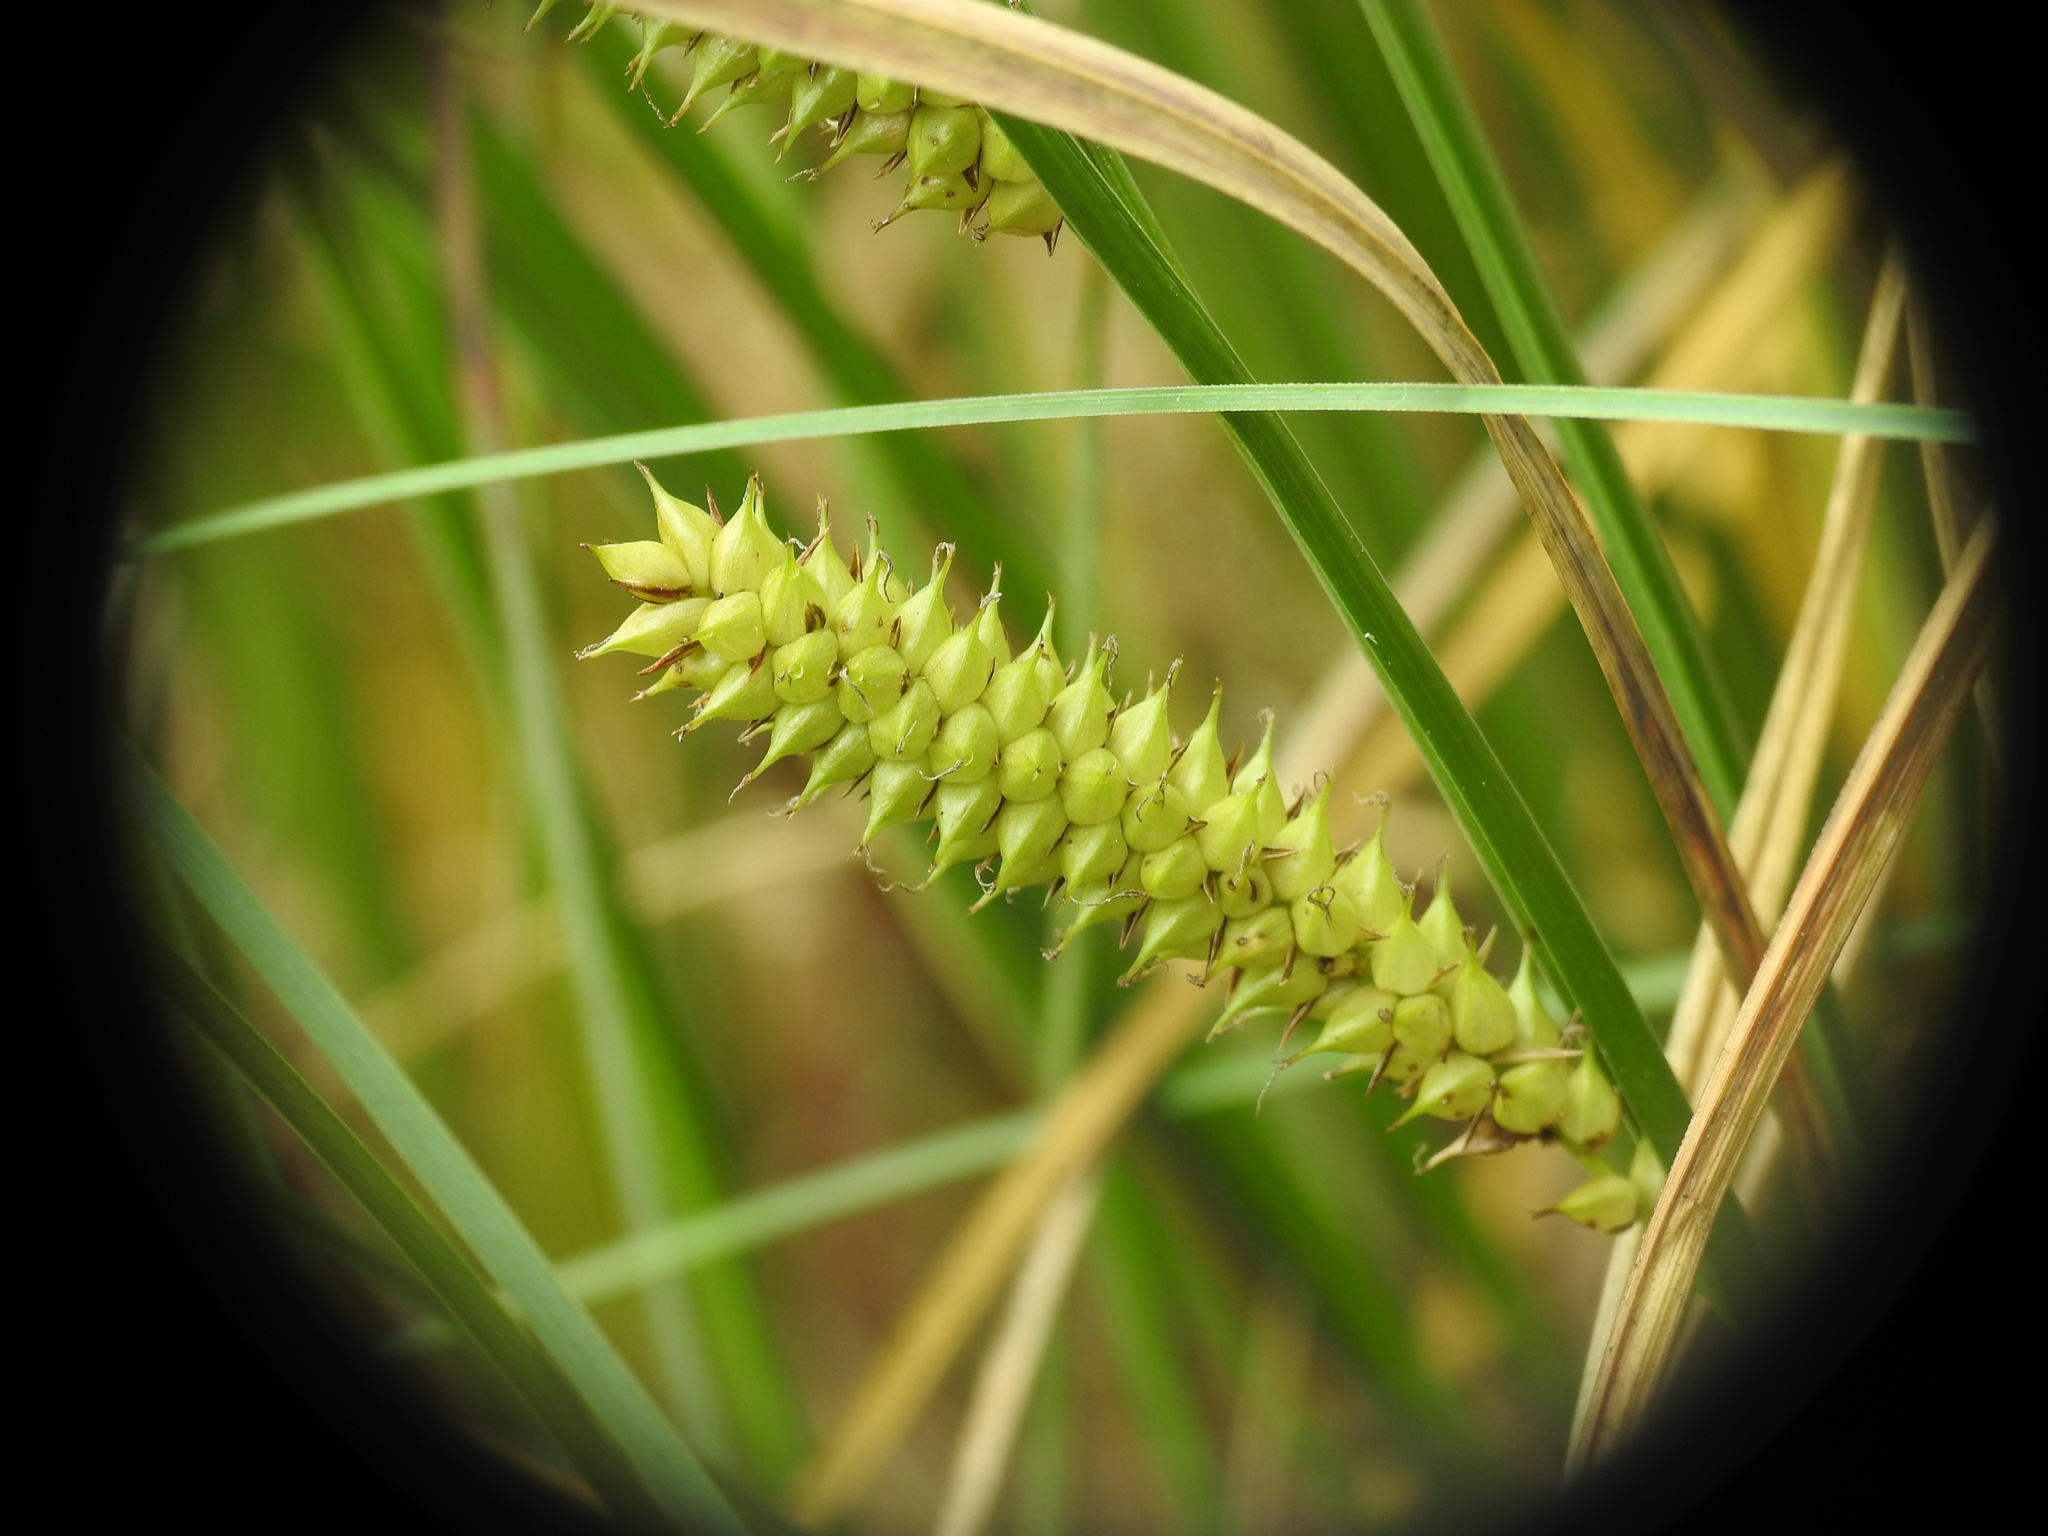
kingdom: Plantae
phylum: Tracheophyta
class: Liliopsida
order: Poales
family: Cyperaceae
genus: Carex
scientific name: Carex rostrata
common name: Bottle sedge
